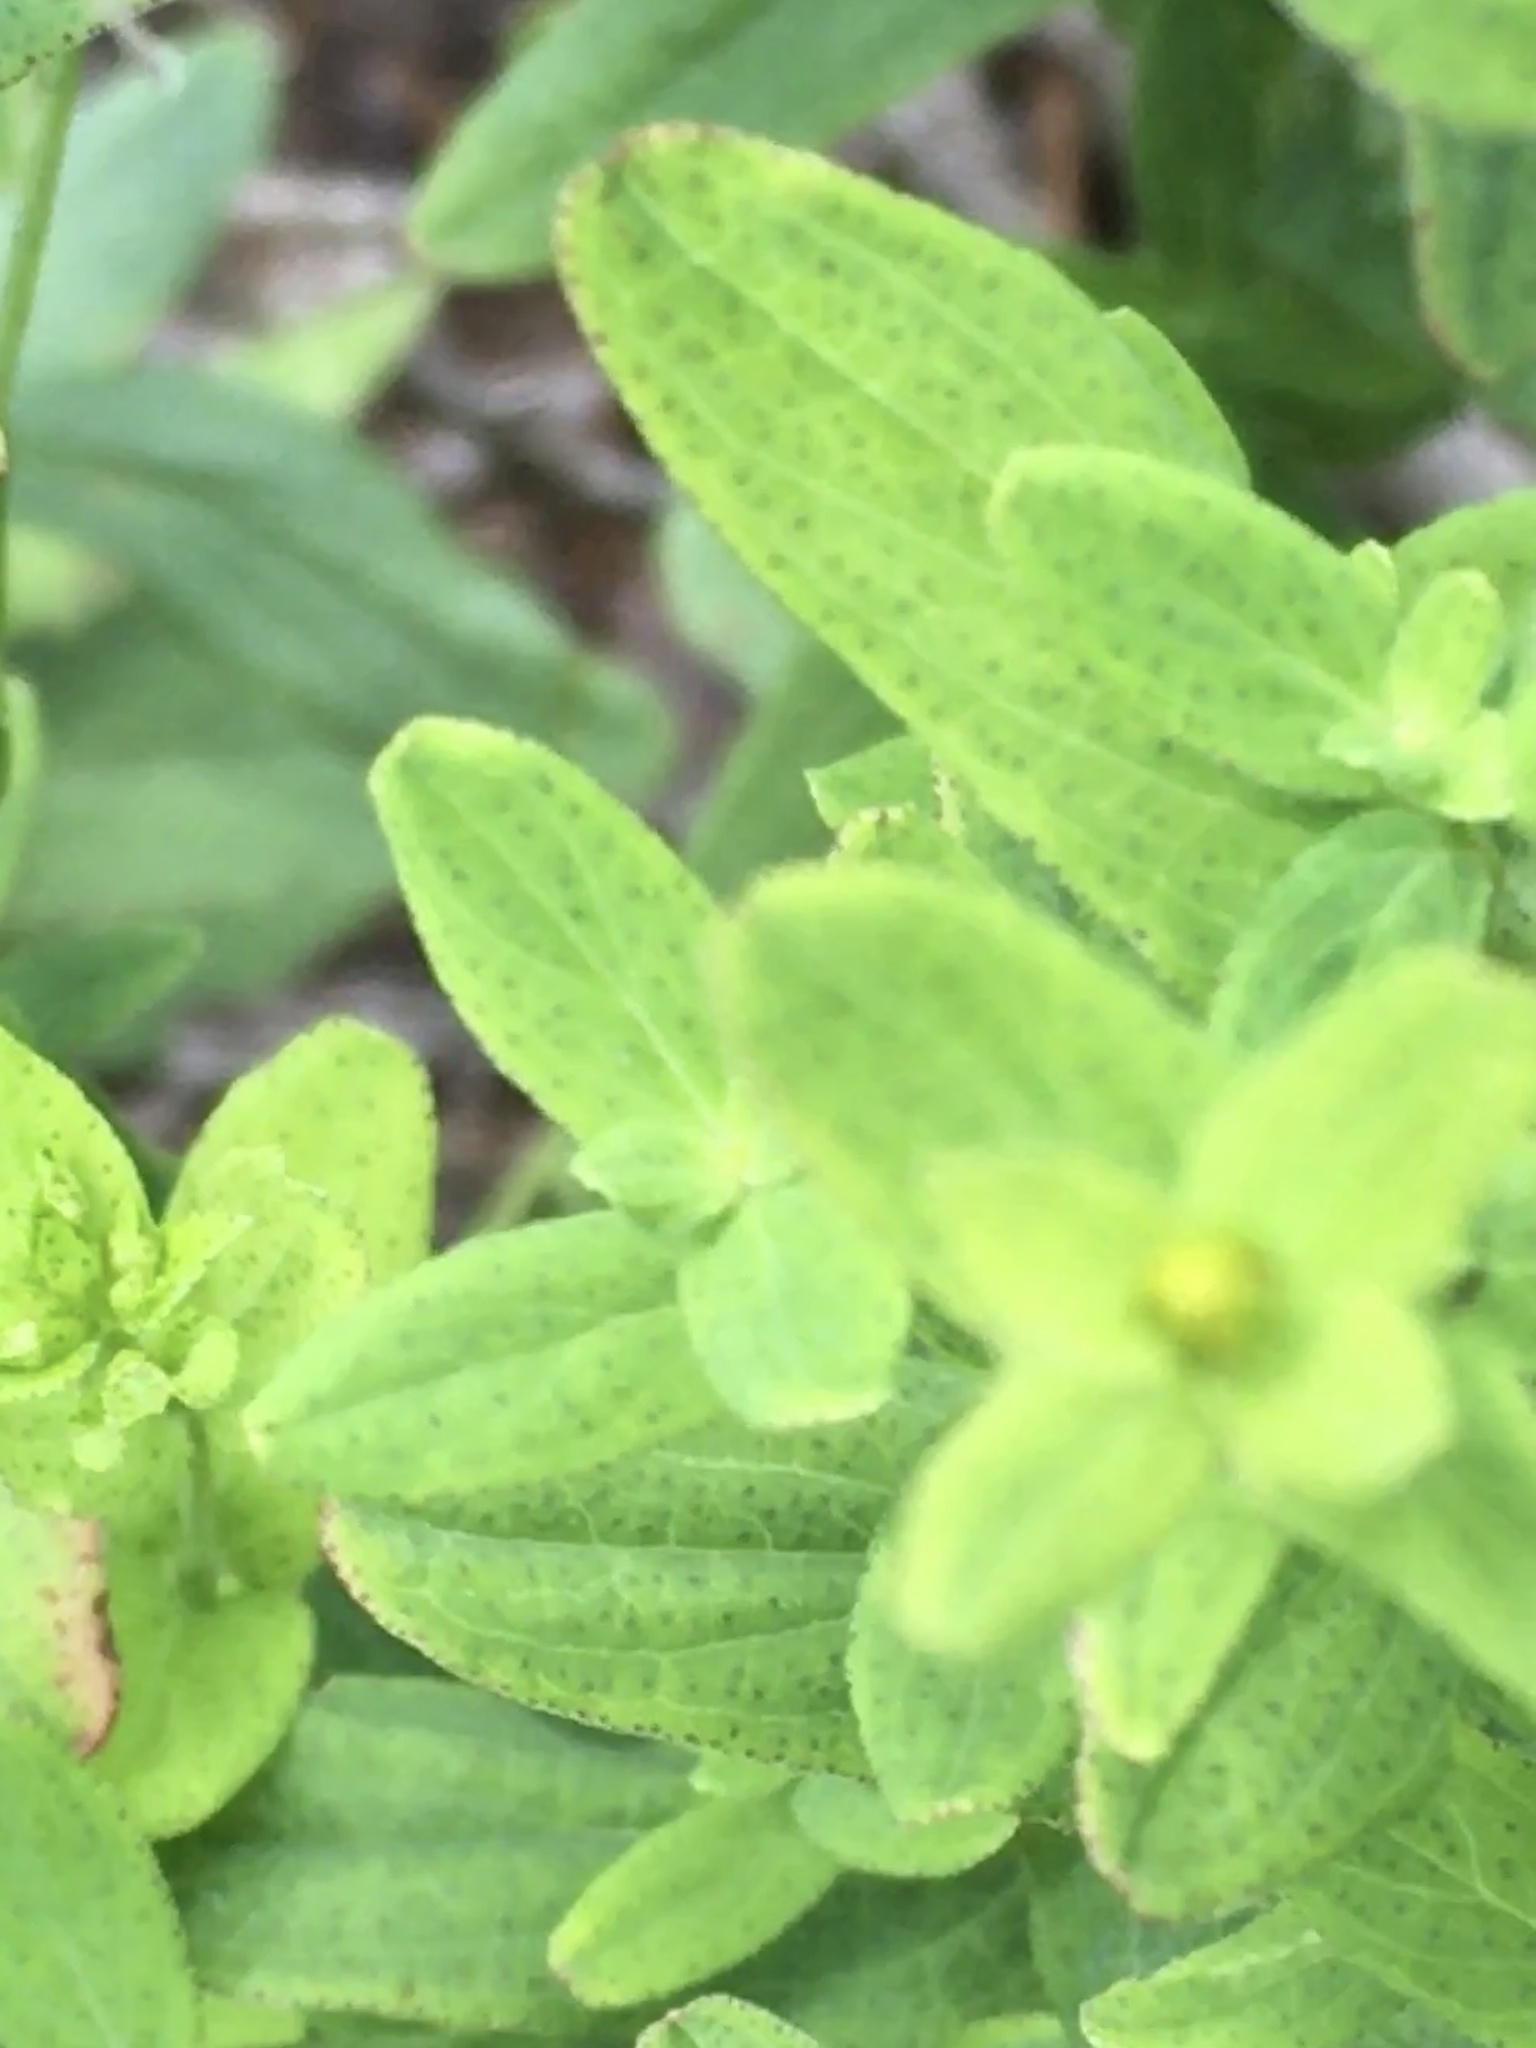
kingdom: Plantae
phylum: Tracheophyta
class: Magnoliopsida
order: Malpighiales
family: Hypericaceae
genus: Hypericum
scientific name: Hypericum punctatum
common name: Spotted st. john's-wort
